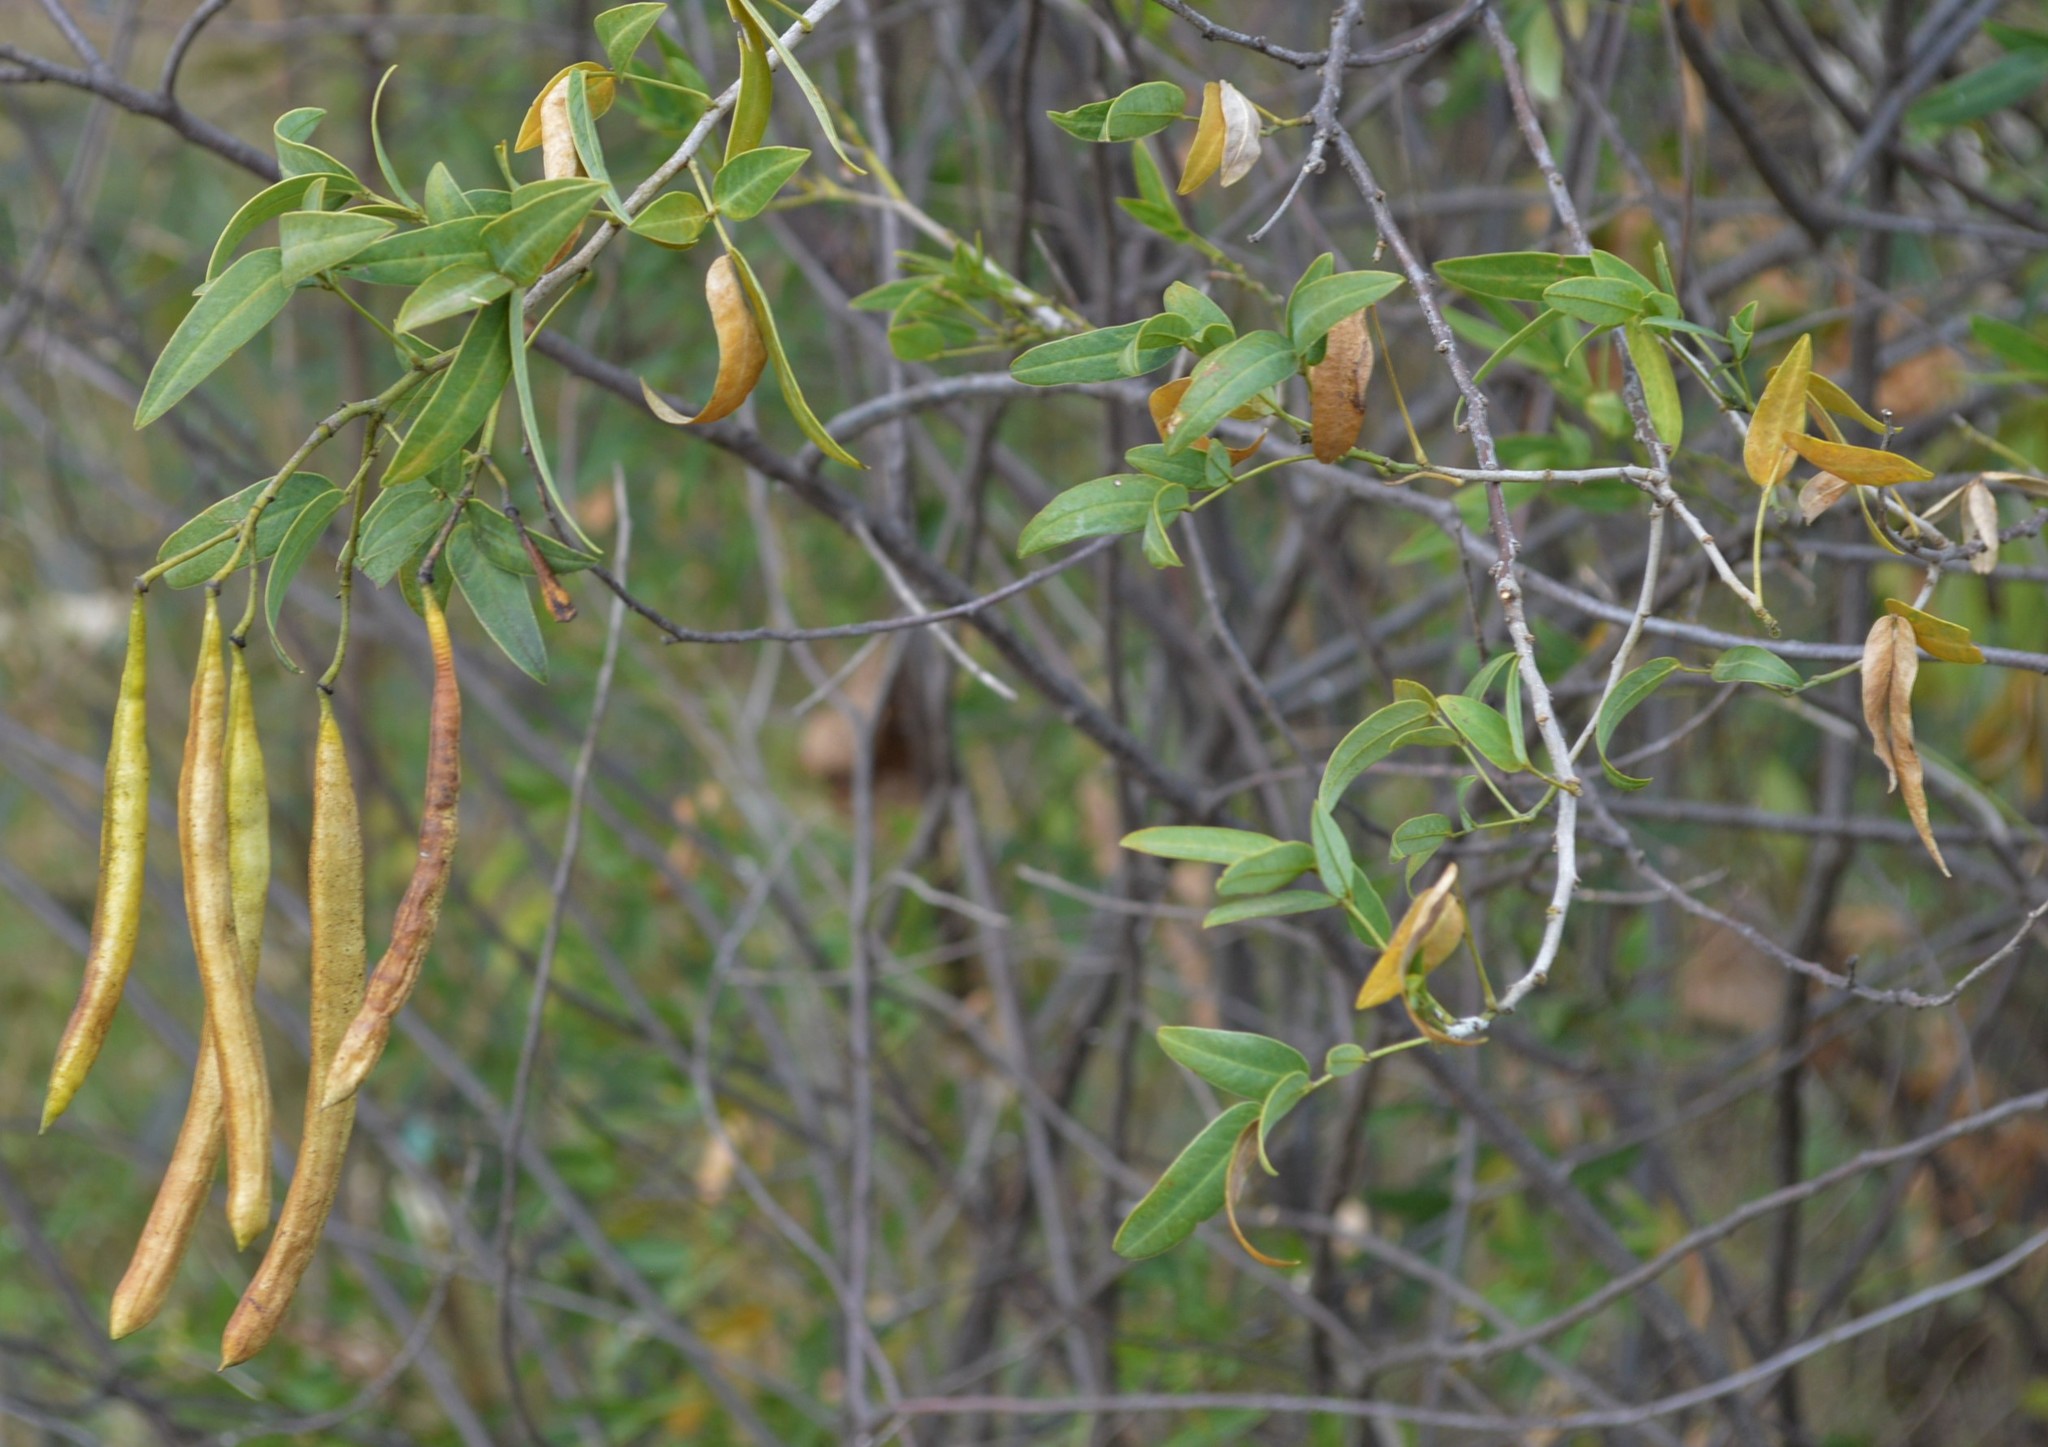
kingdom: Plantae
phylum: Tracheophyta
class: Magnoliopsida
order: Fabales
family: Fabaceae
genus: Senna
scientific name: Senna corymbosa
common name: Argentine senna
